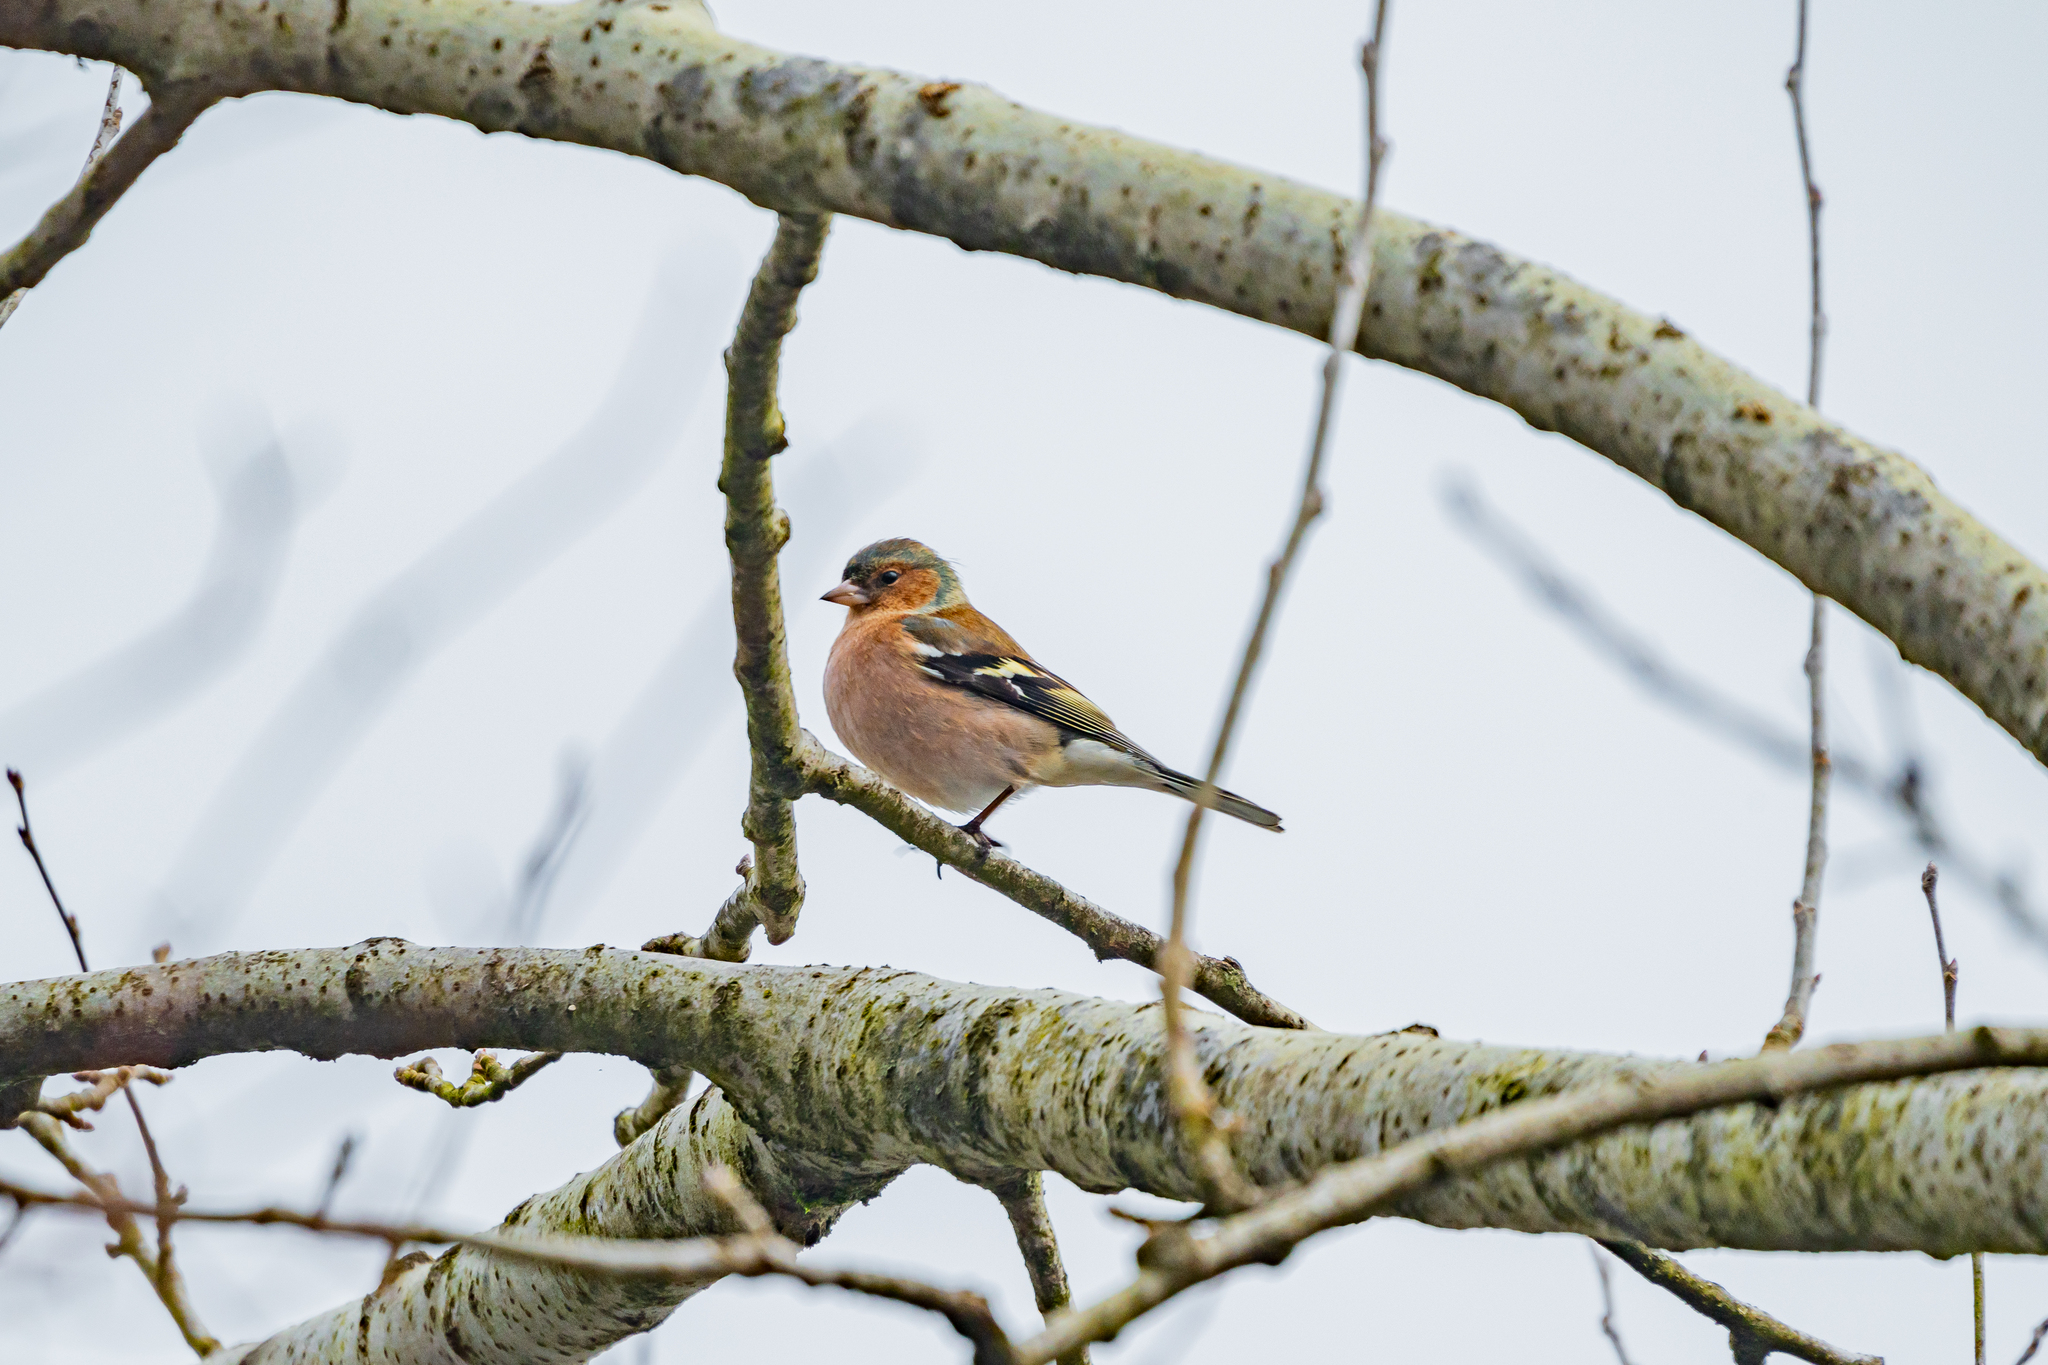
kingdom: Animalia
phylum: Chordata
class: Aves
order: Passeriformes
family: Fringillidae
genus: Fringilla
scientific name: Fringilla coelebs
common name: Common chaffinch
